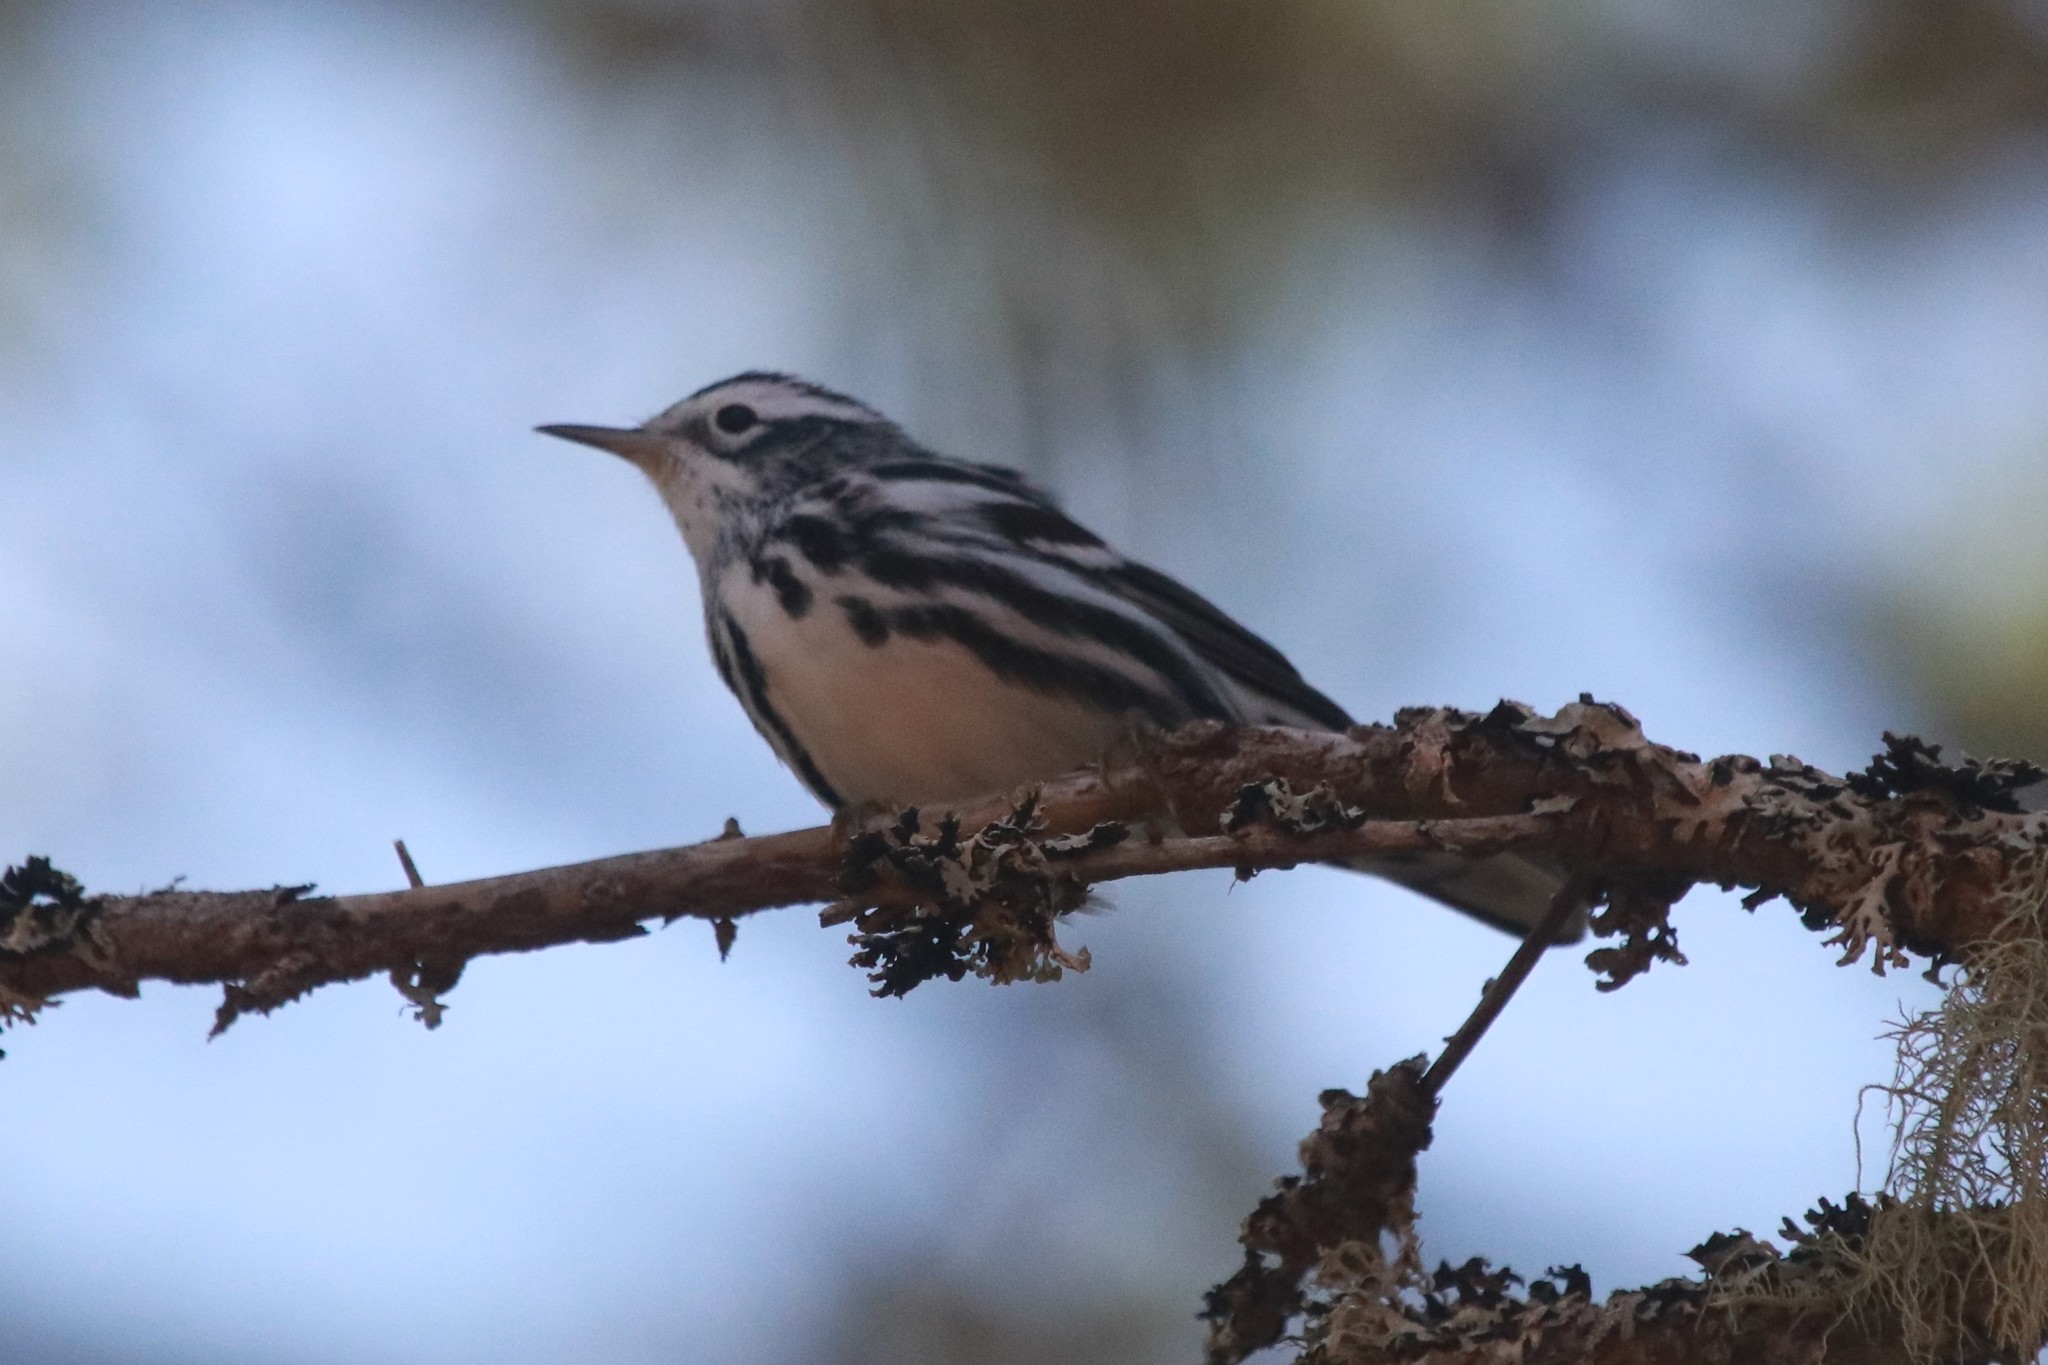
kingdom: Animalia
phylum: Chordata
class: Aves
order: Passeriformes
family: Parulidae
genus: Mniotilta
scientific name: Mniotilta varia
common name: Black-and-white warbler
